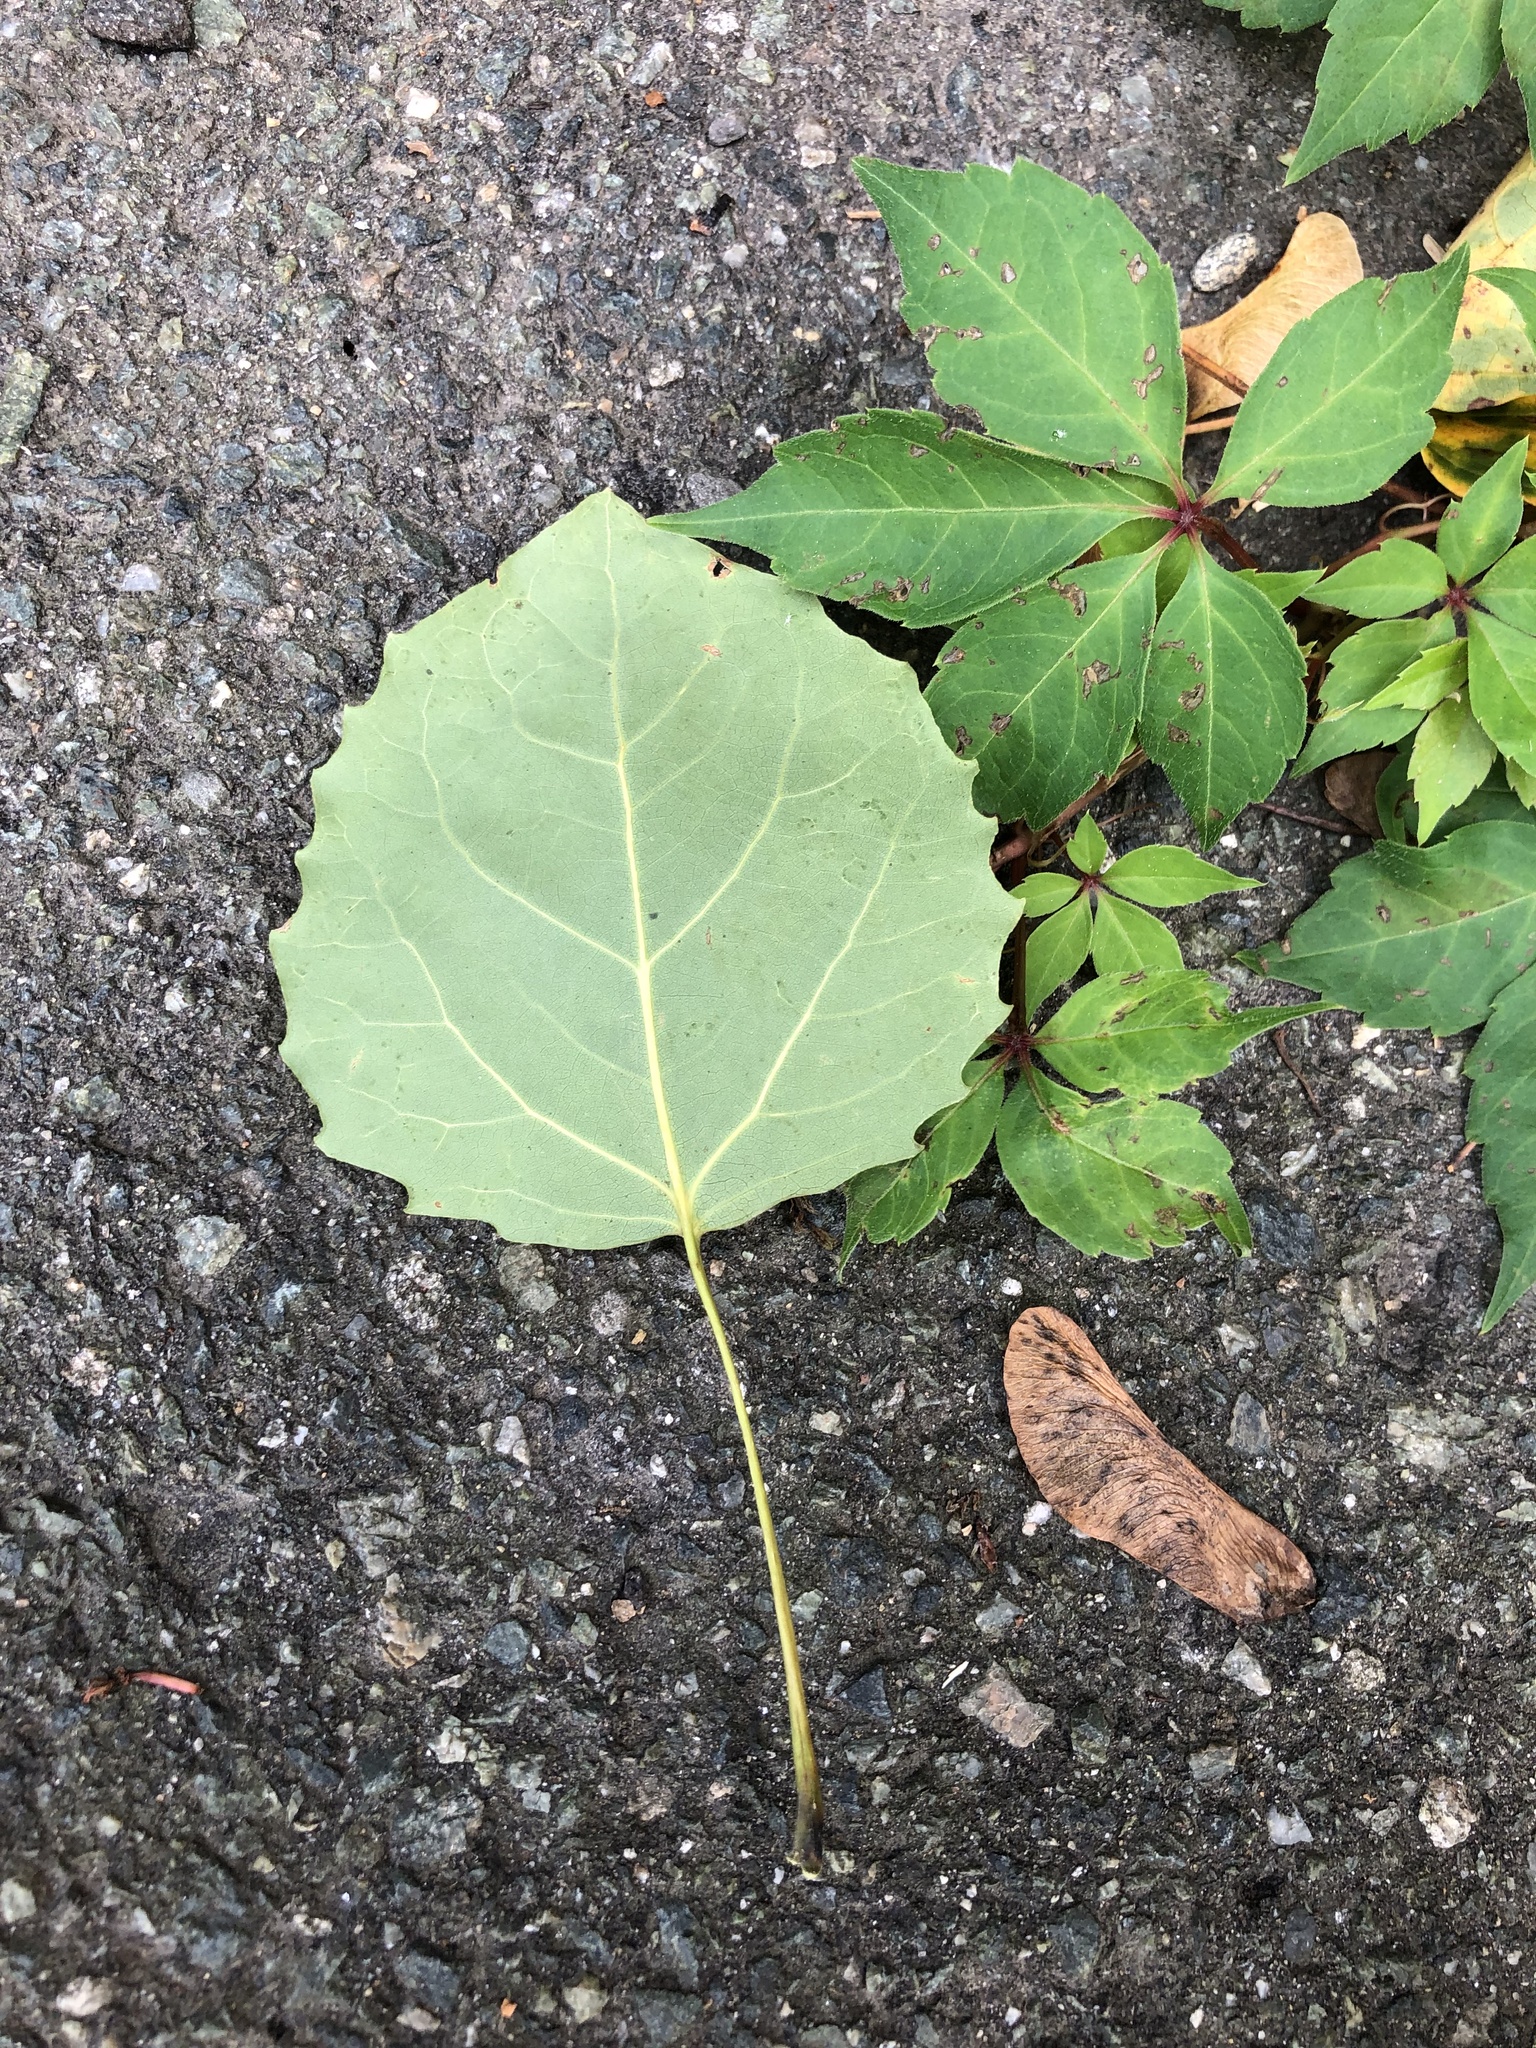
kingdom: Plantae
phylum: Tracheophyta
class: Magnoliopsida
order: Malpighiales
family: Salicaceae
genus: Populus
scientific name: Populus grandidentata
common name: Bigtooth aspen
